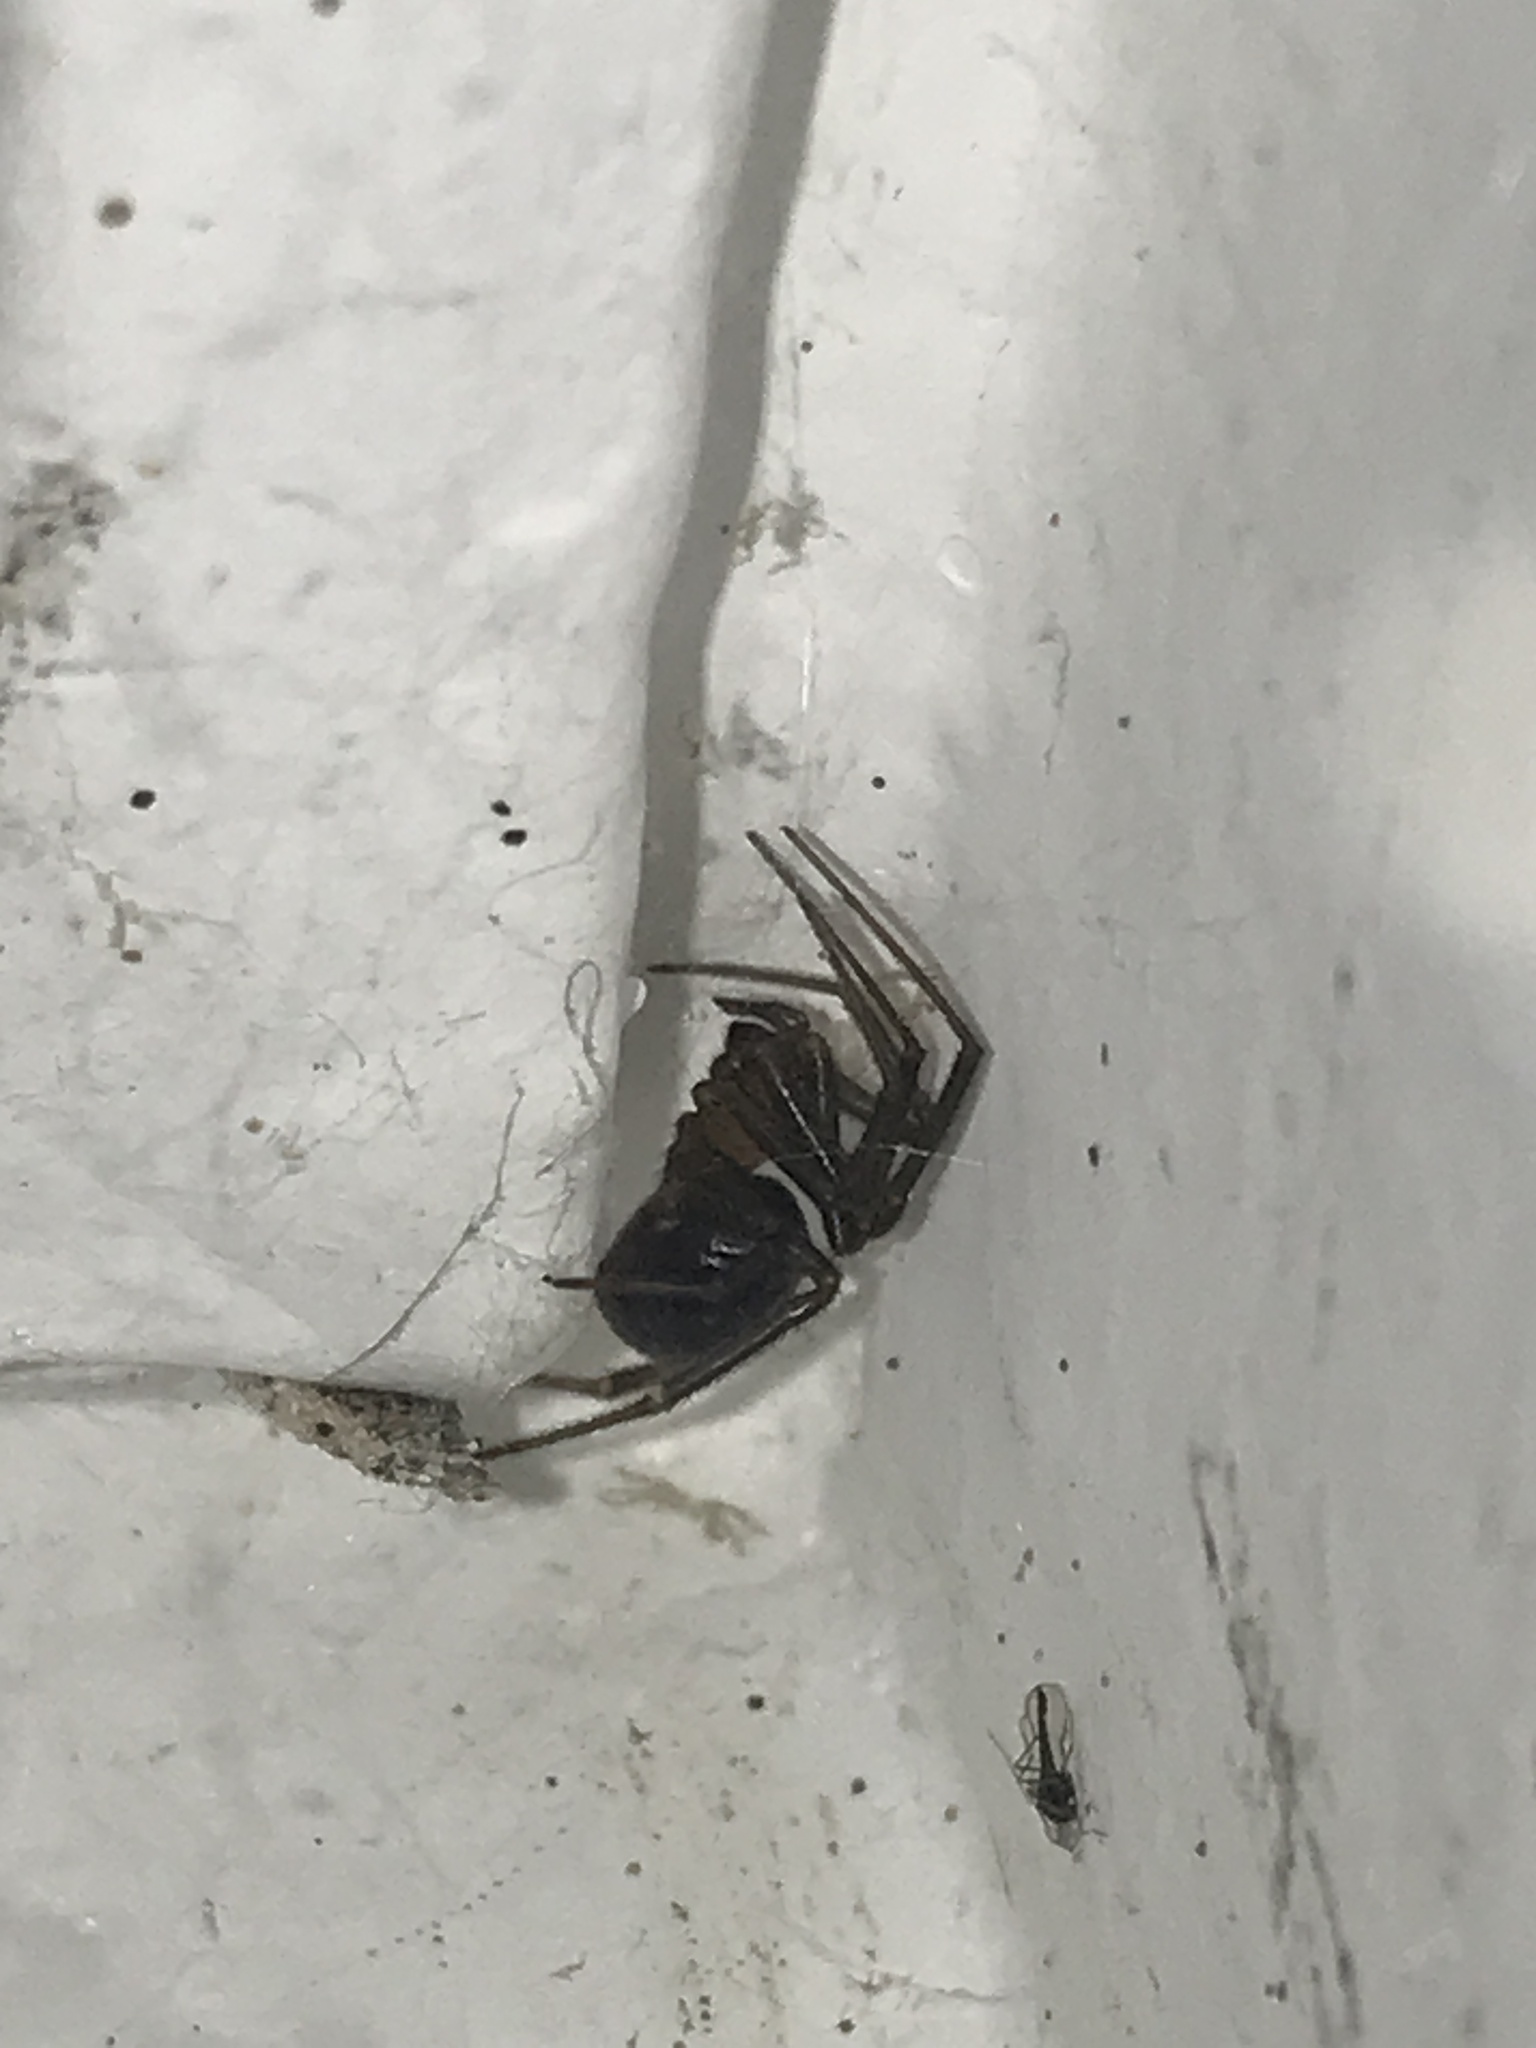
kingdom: Animalia
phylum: Arthropoda
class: Arachnida
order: Araneae
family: Theridiidae
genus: Steatoda
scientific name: Steatoda grossa
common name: False black widow
